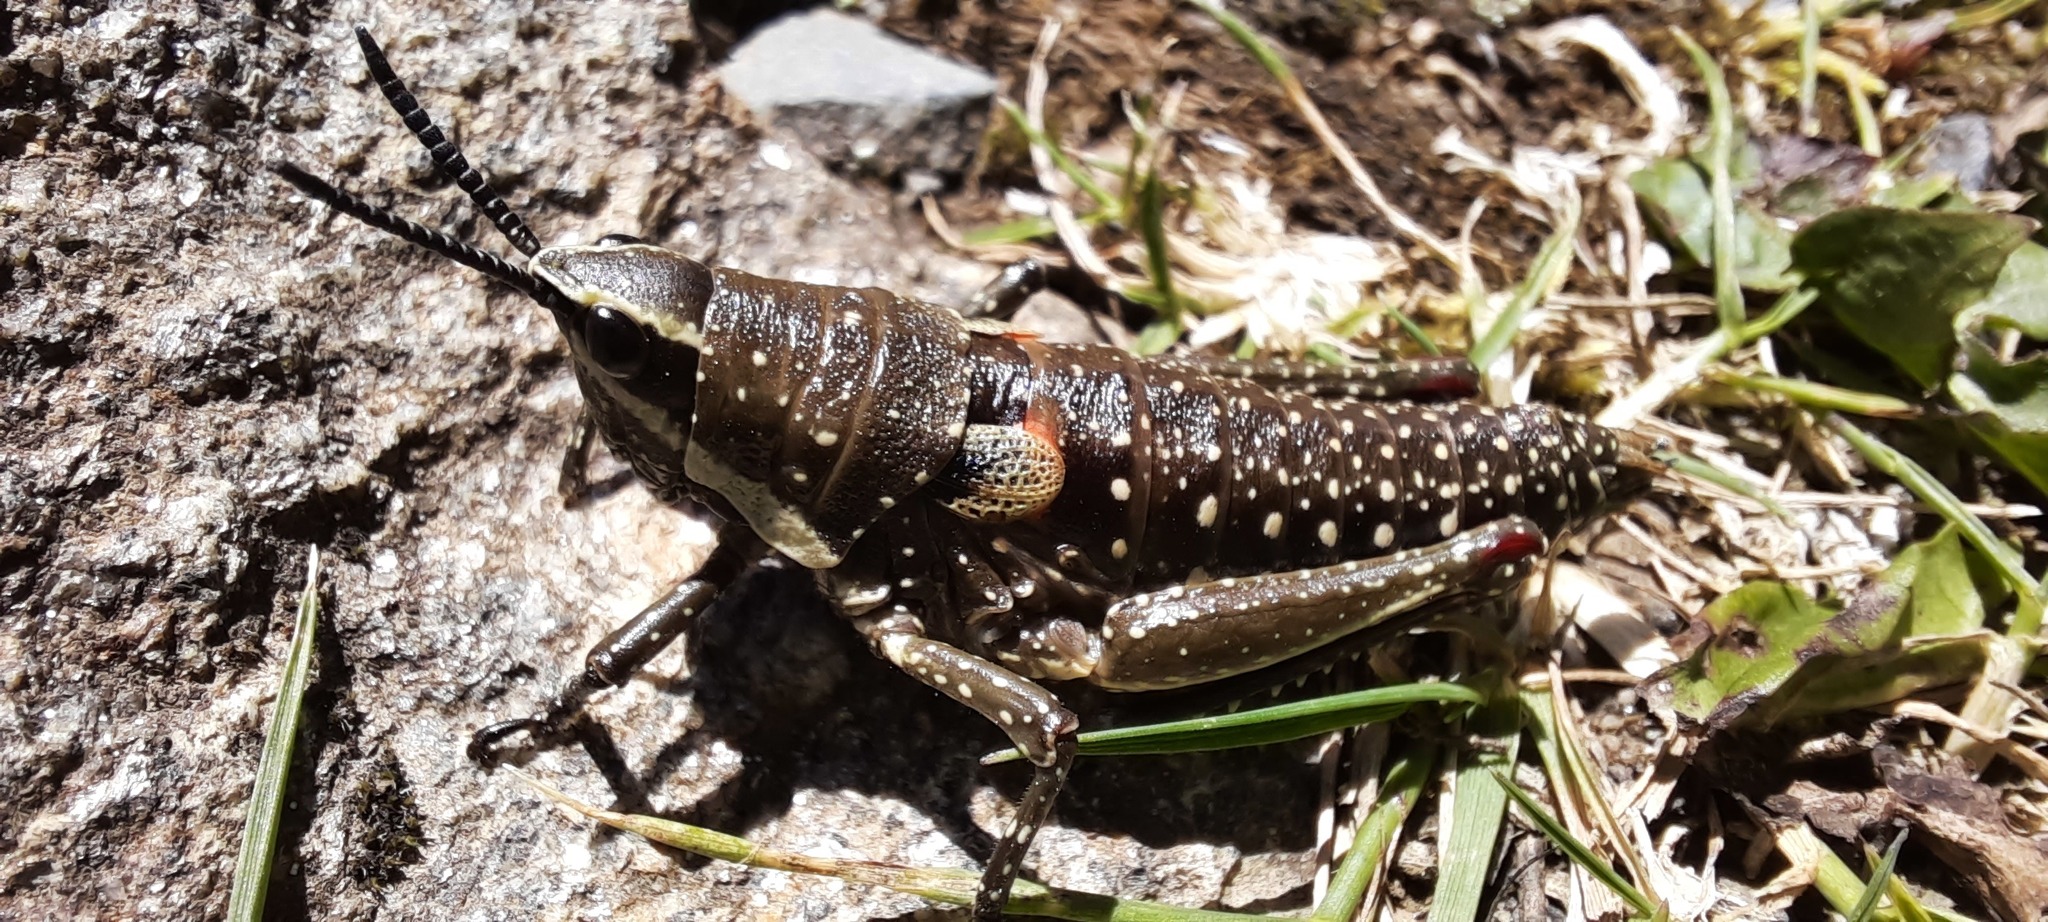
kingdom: Animalia
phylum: Arthropoda
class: Insecta
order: Orthoptera
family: Pyrgomorphidae
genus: Monistria
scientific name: Monistria concinna
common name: Southern pyrgomorph
